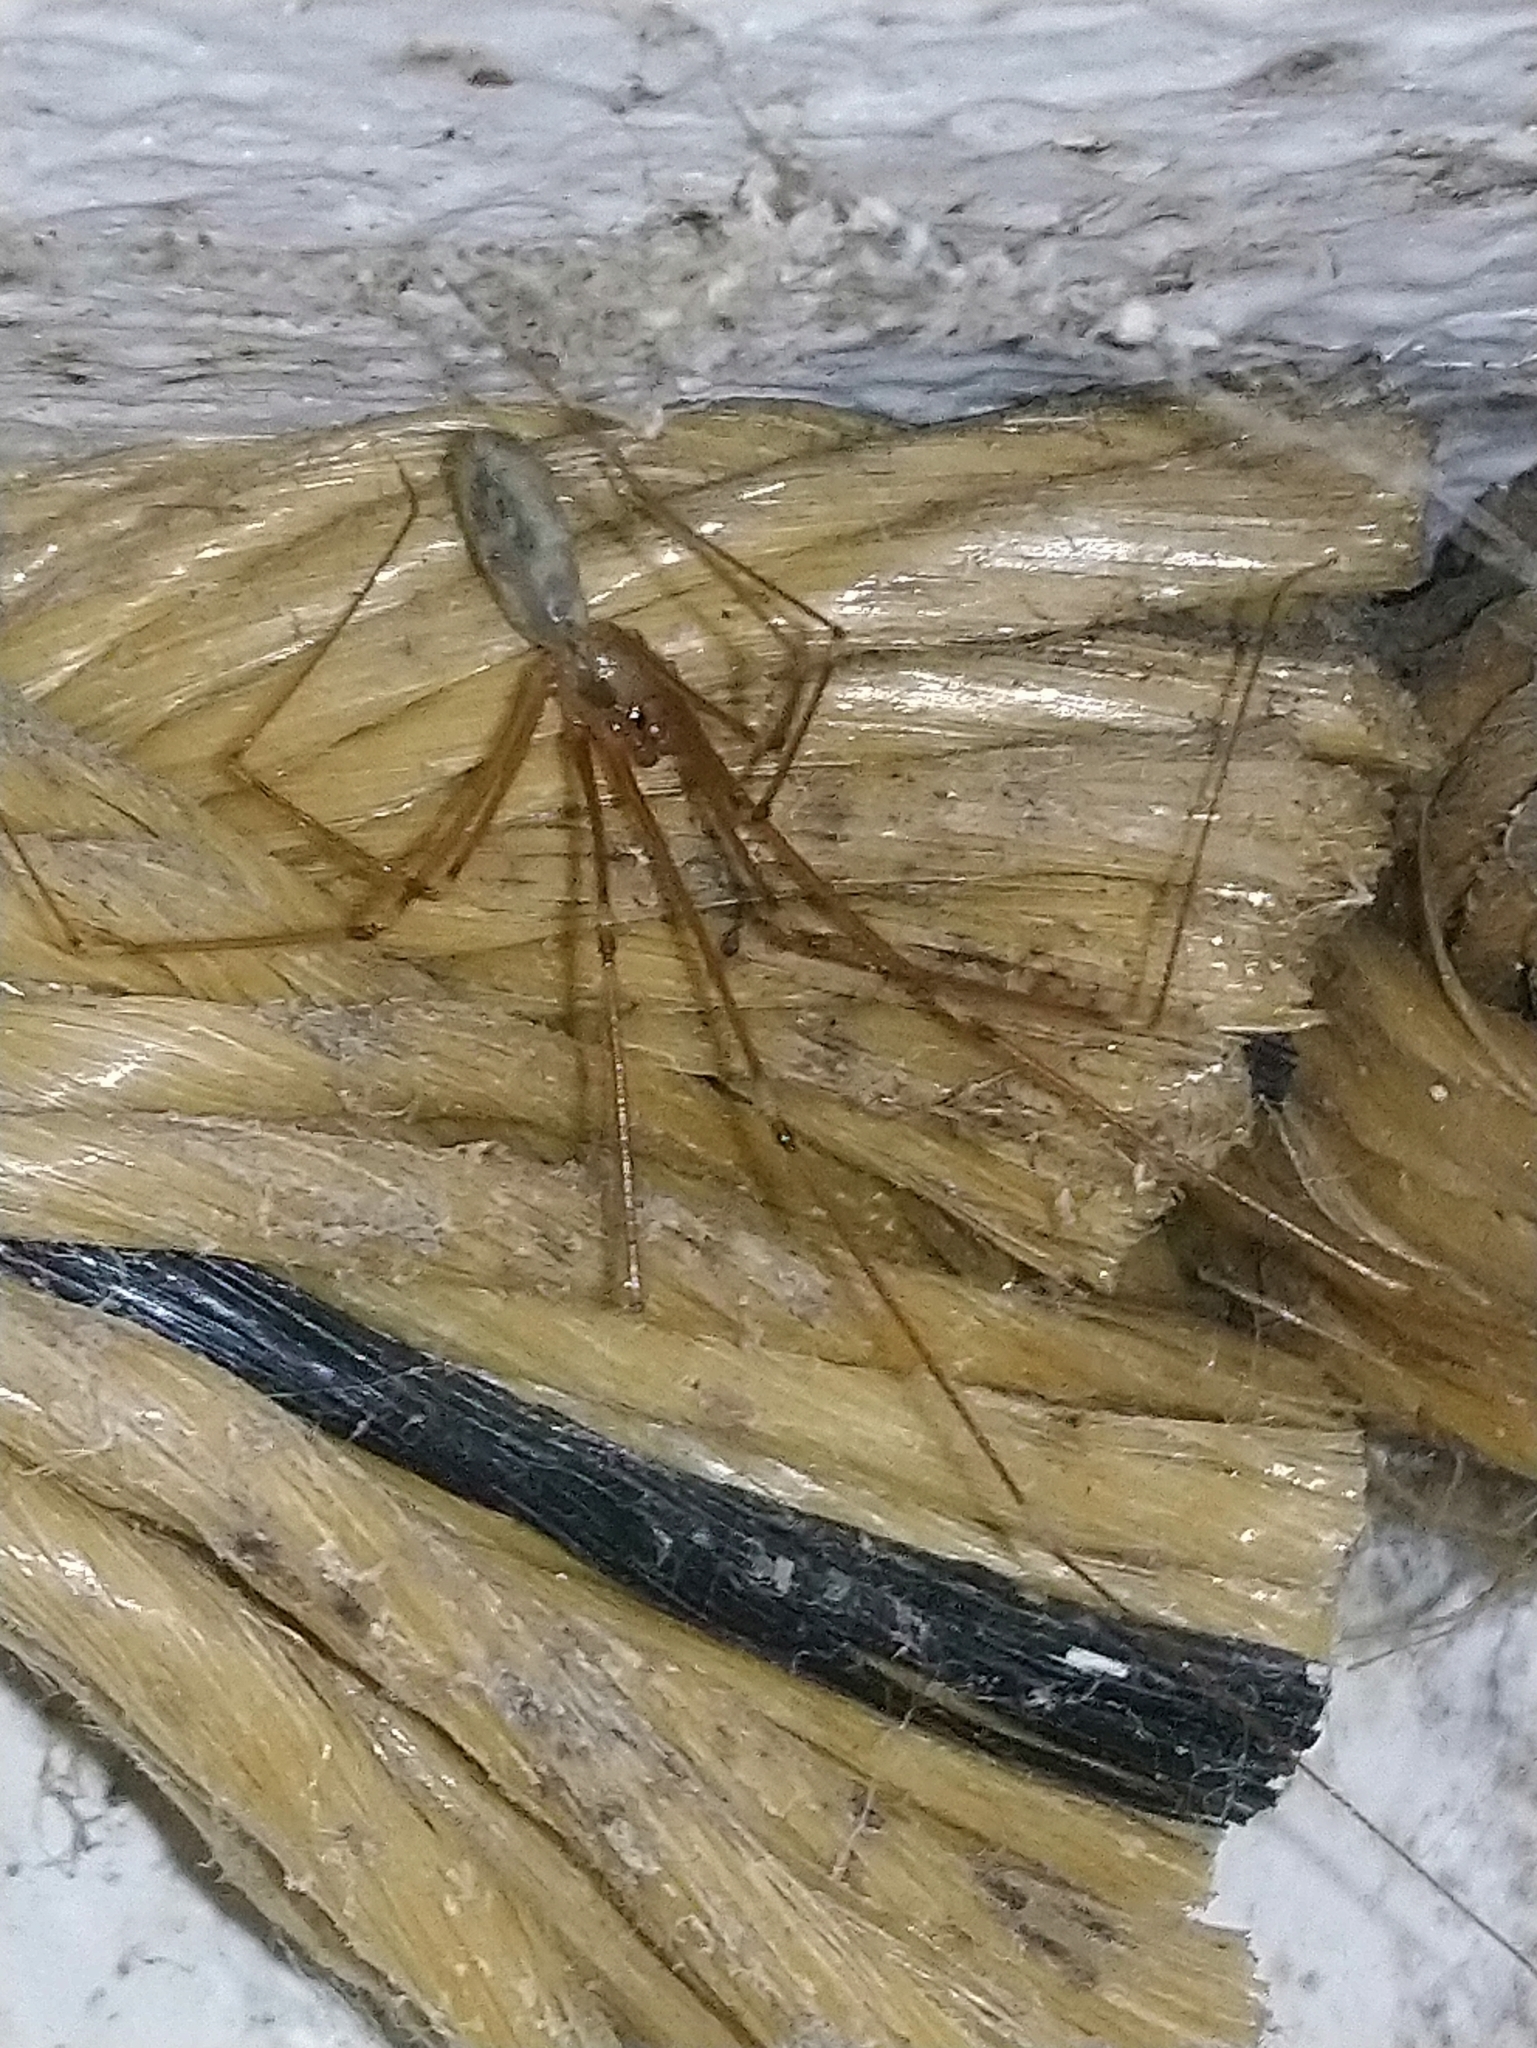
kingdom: Animalia
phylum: Arthropoda
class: Arachnida
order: Araneae
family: Pholcidae
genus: Pholcus
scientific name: Pholcus phalangioides
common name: Longbodied cellar spider
